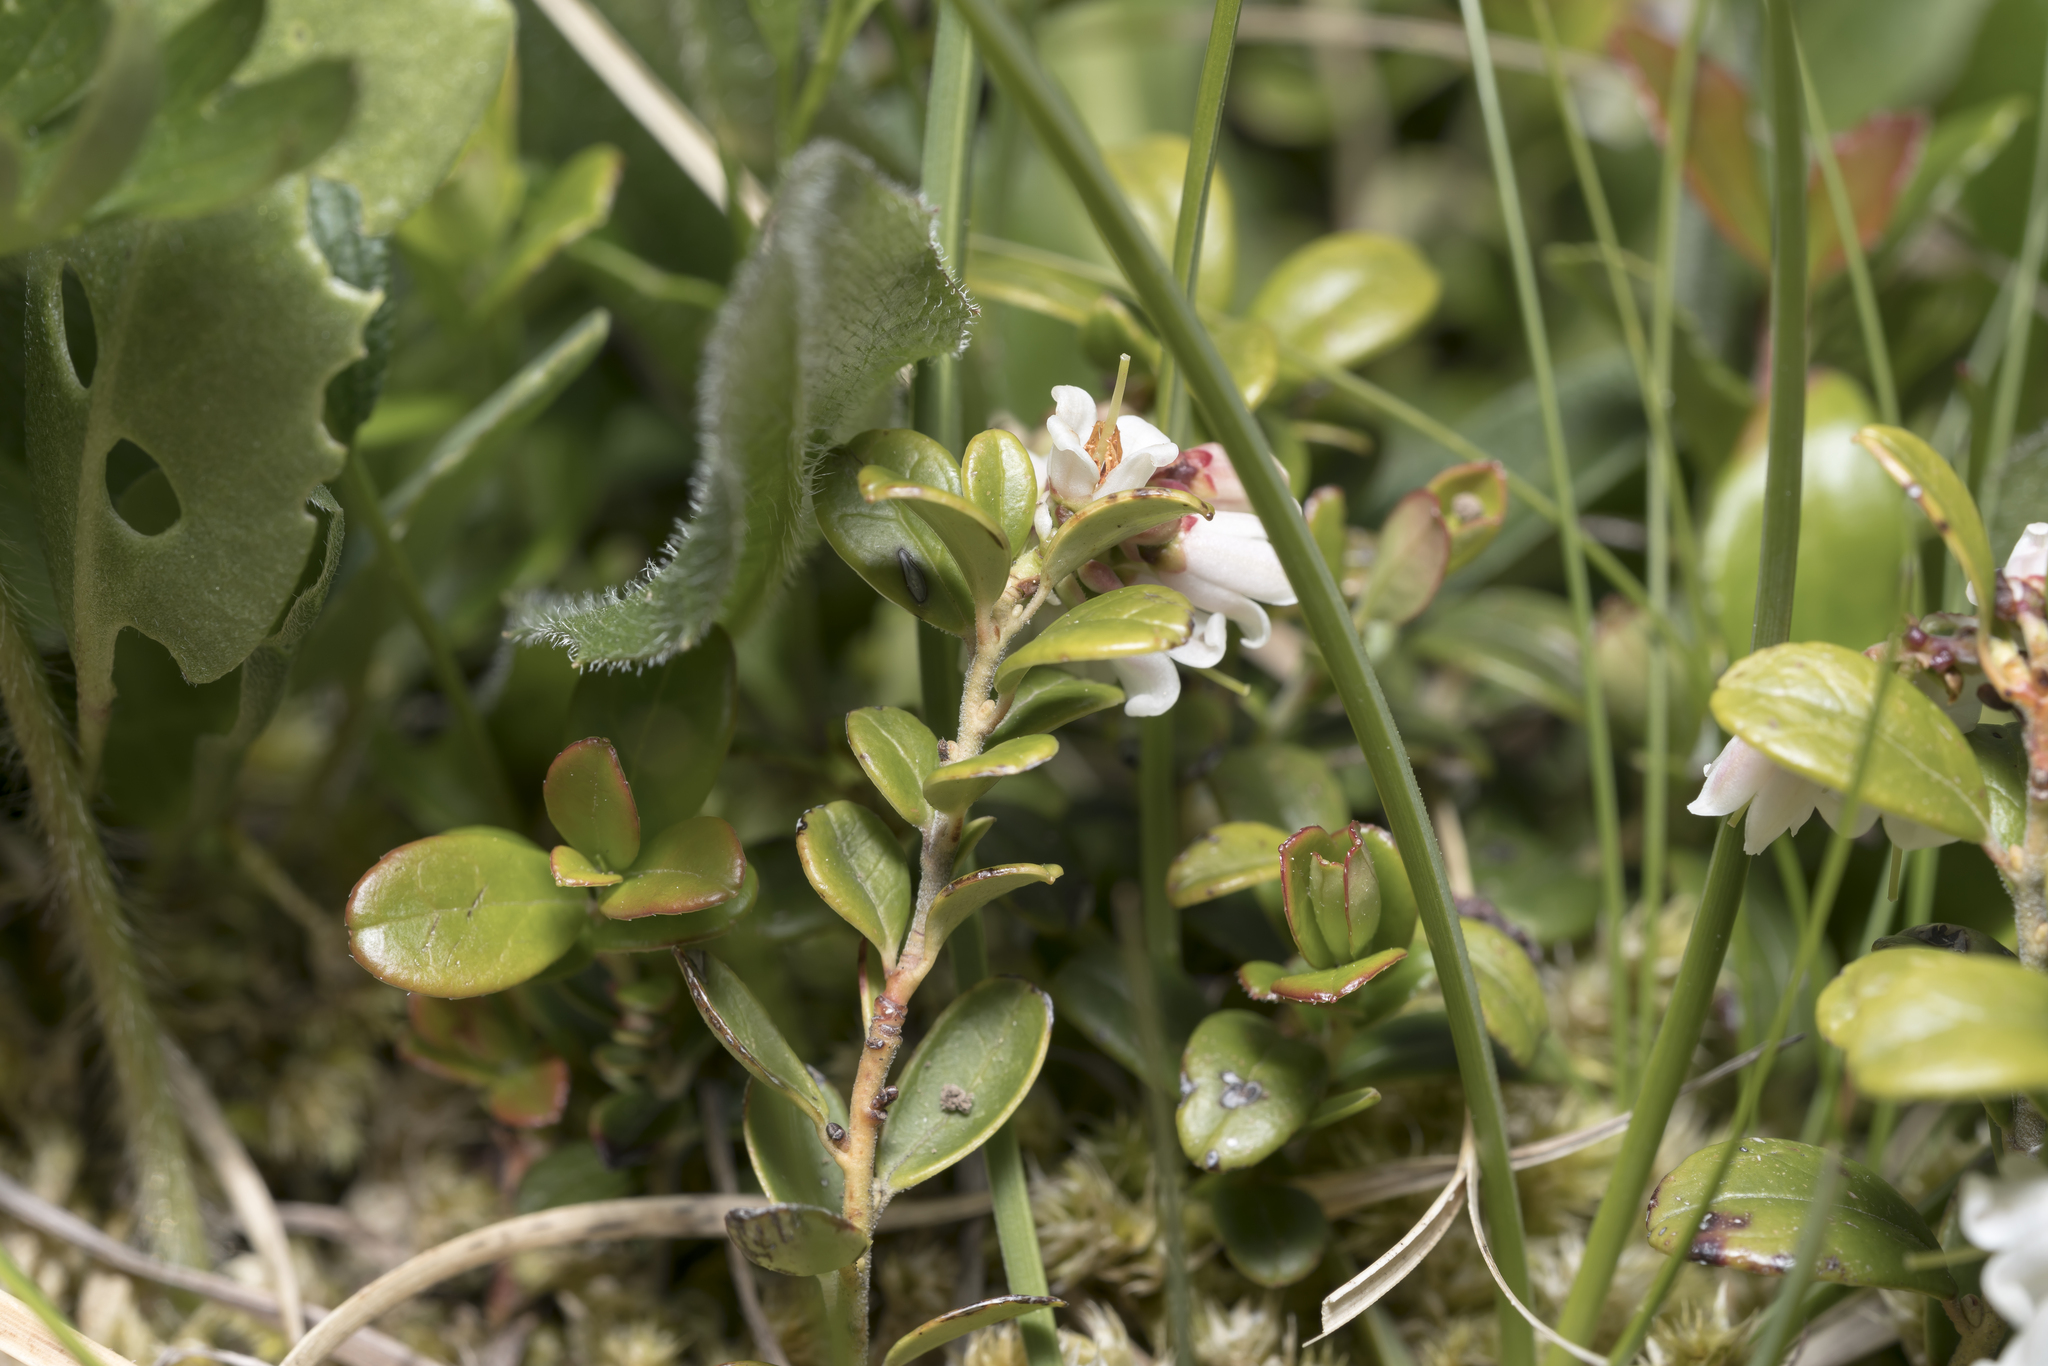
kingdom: Plantae
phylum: Tracheophyta
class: Magnoliopsida
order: Ericales
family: Ericaceae
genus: Vaccinium
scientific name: Vaccinium vitis-idaea
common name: Cowberry
